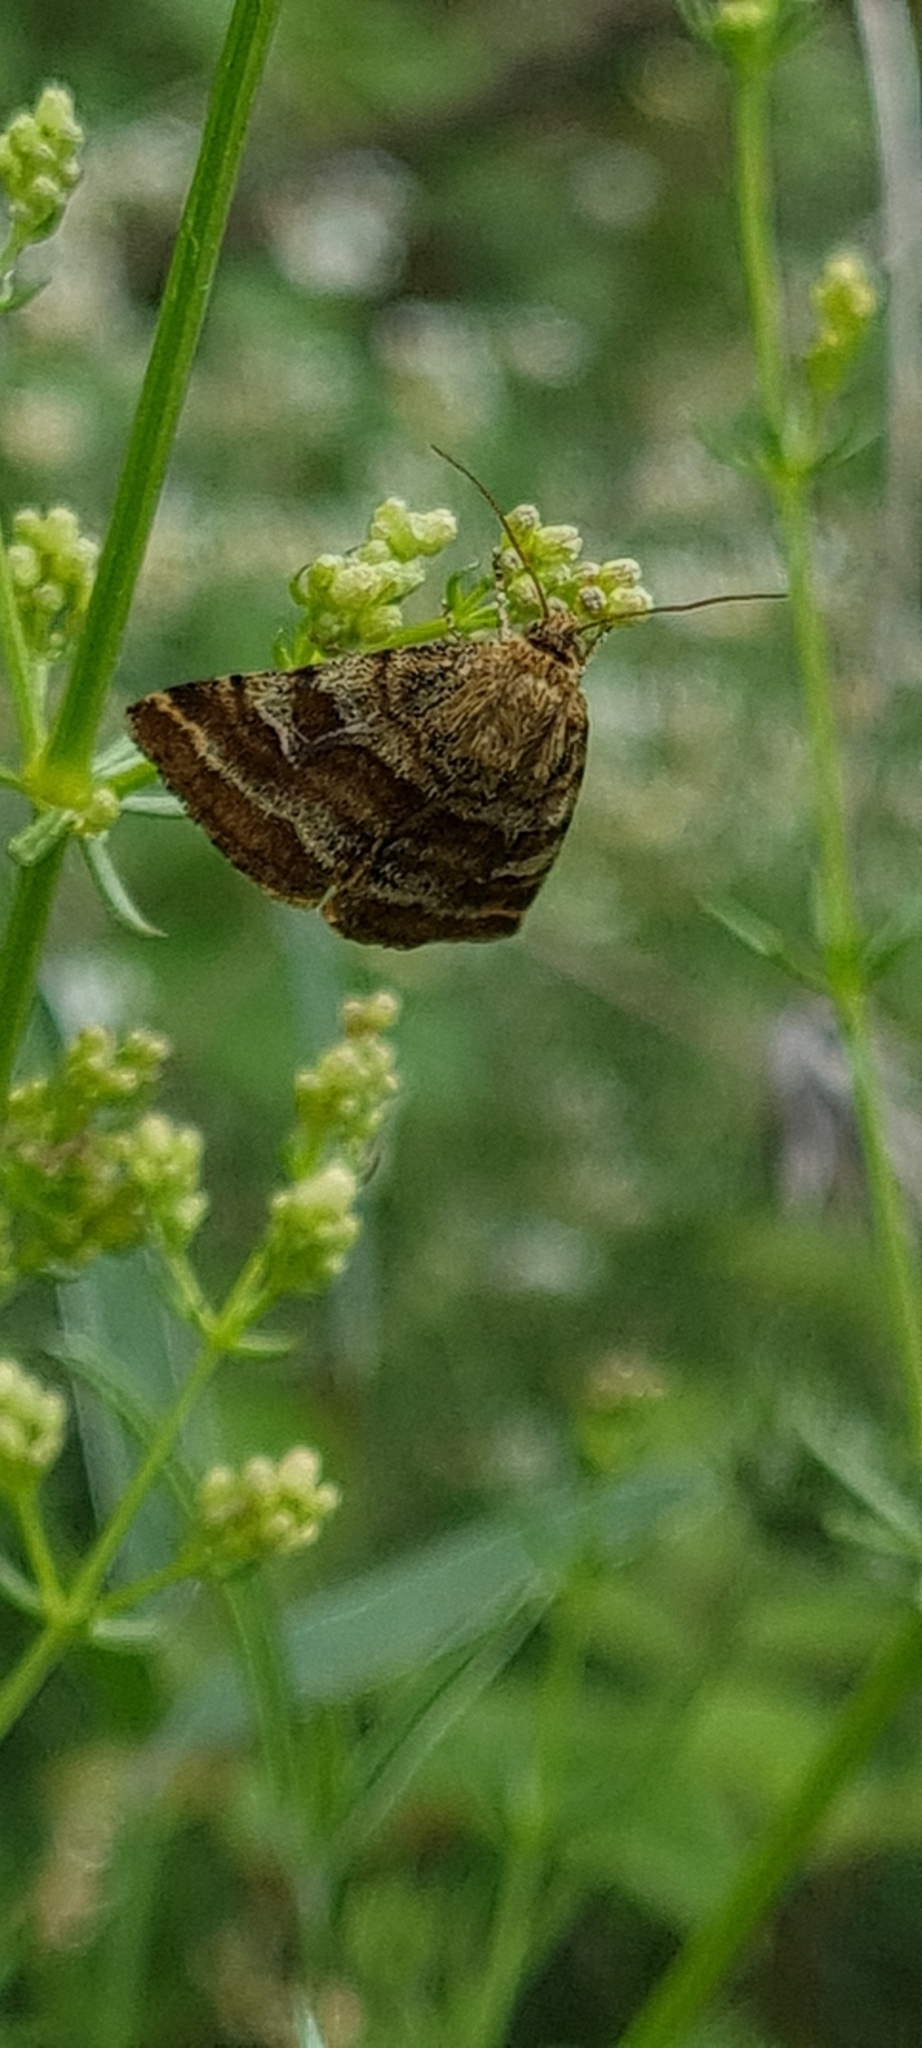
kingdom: Animalia
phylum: Arthropoda
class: Insecta
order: Lepidoptera
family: Noctuidae
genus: Synthymia
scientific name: Synthymia fixa
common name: Goldwing
